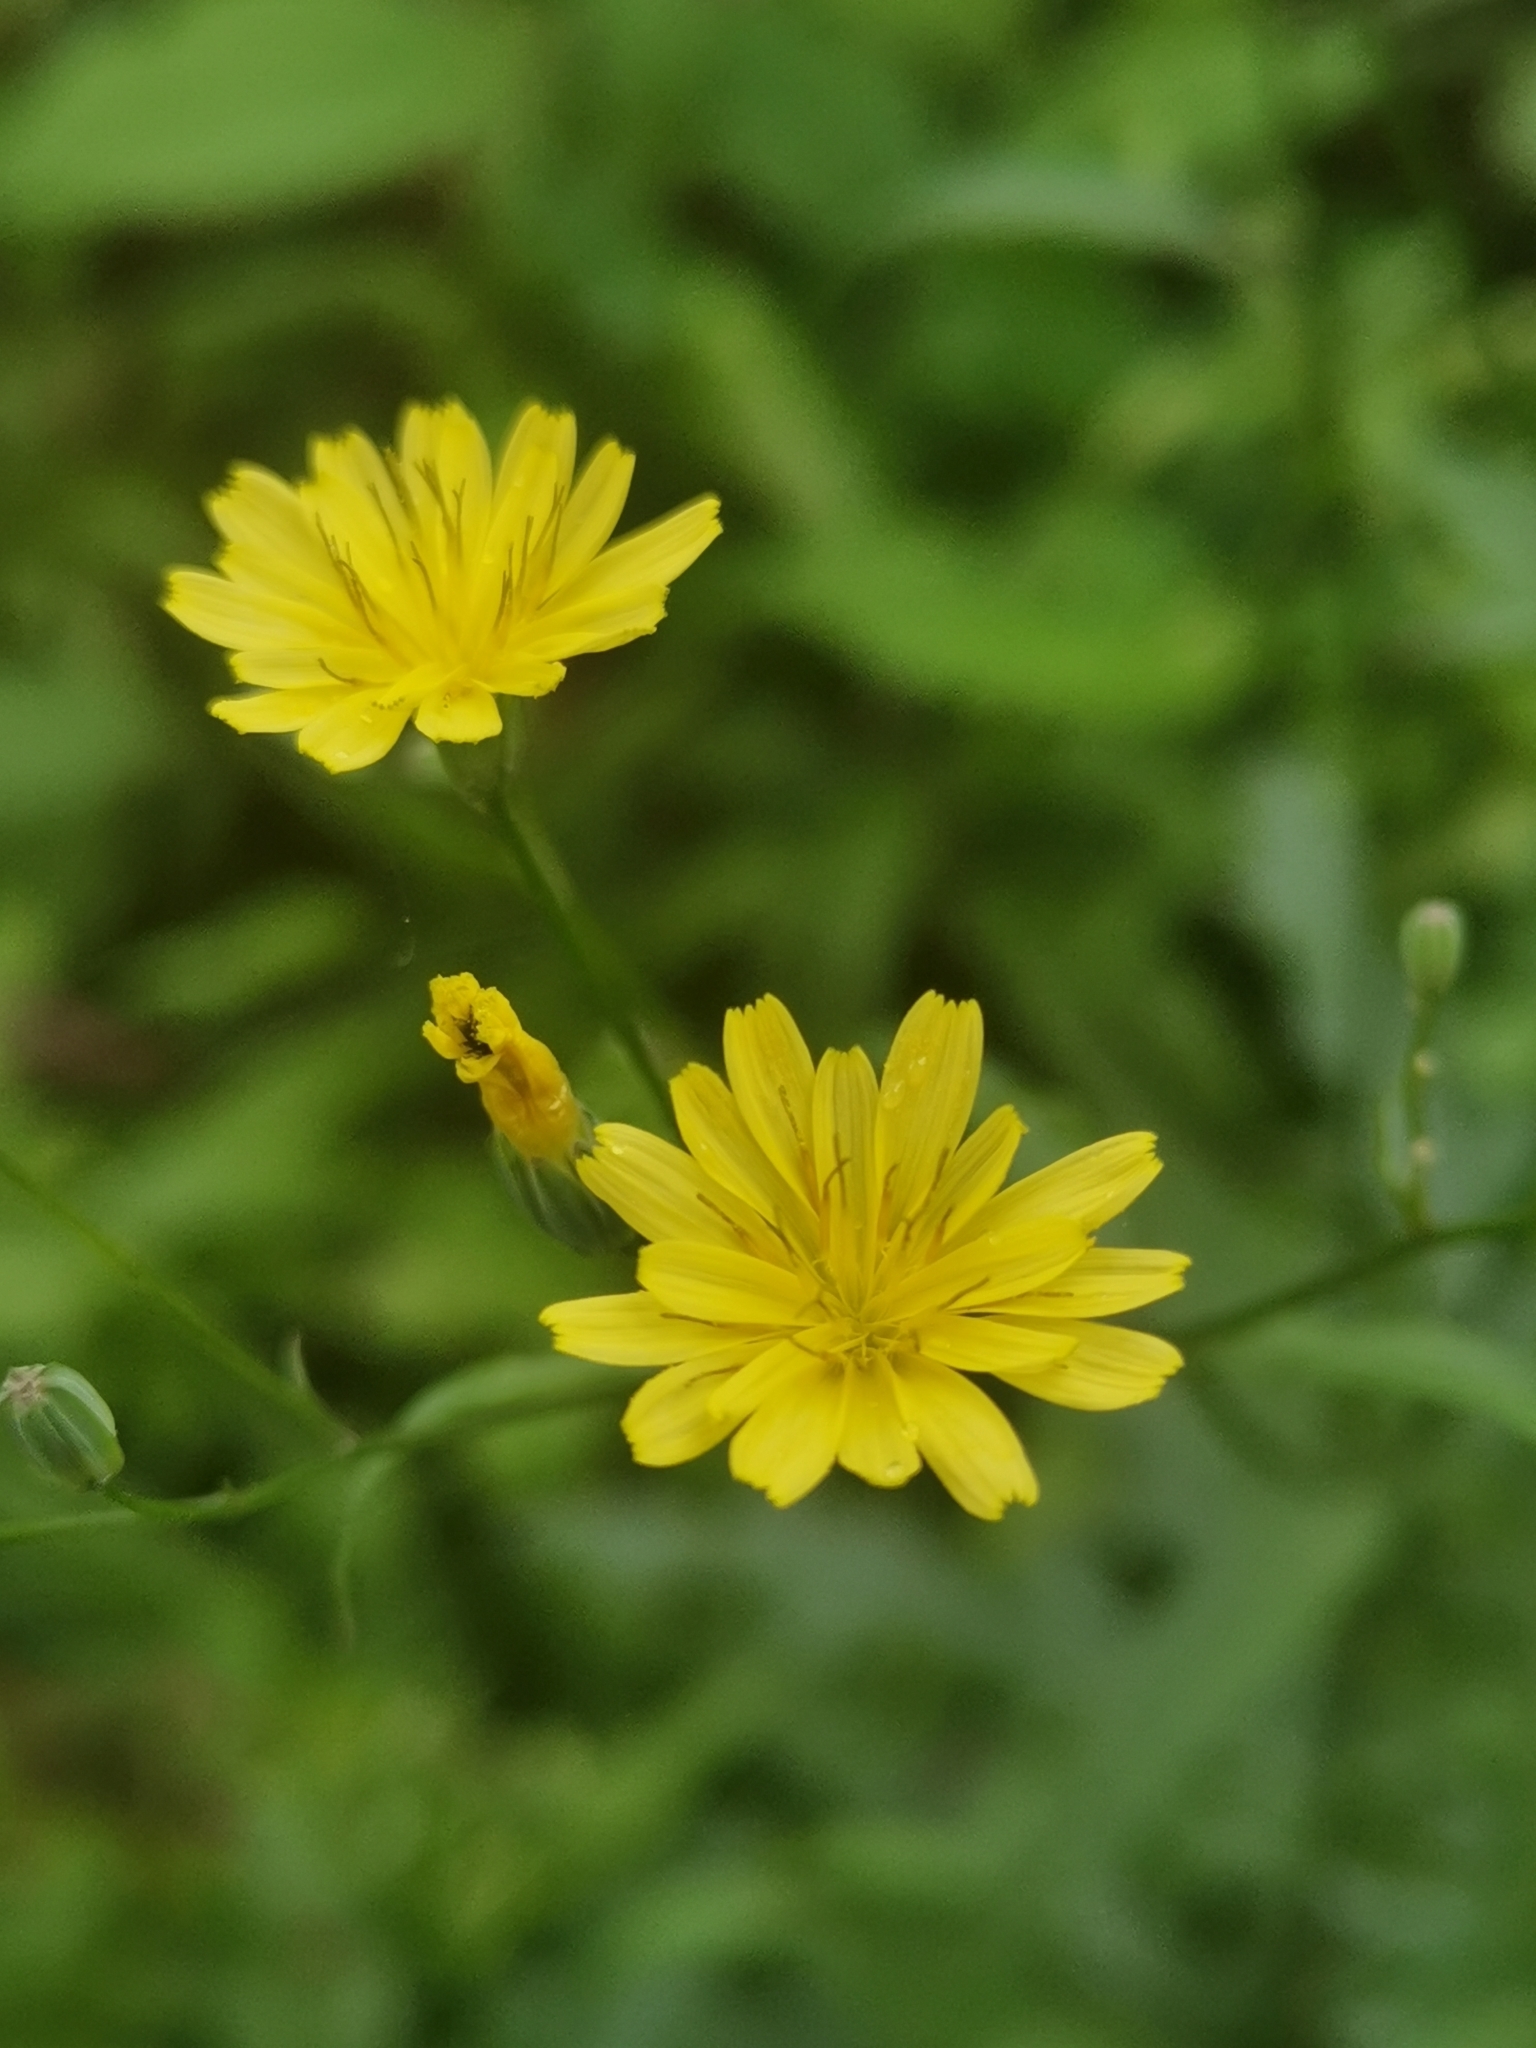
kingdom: Plantae
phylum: Tracheophyta
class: Magnoliopsida
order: Asterales
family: Asteraceae
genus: Lapsana
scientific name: Lapsana communis
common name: Nipplewort
